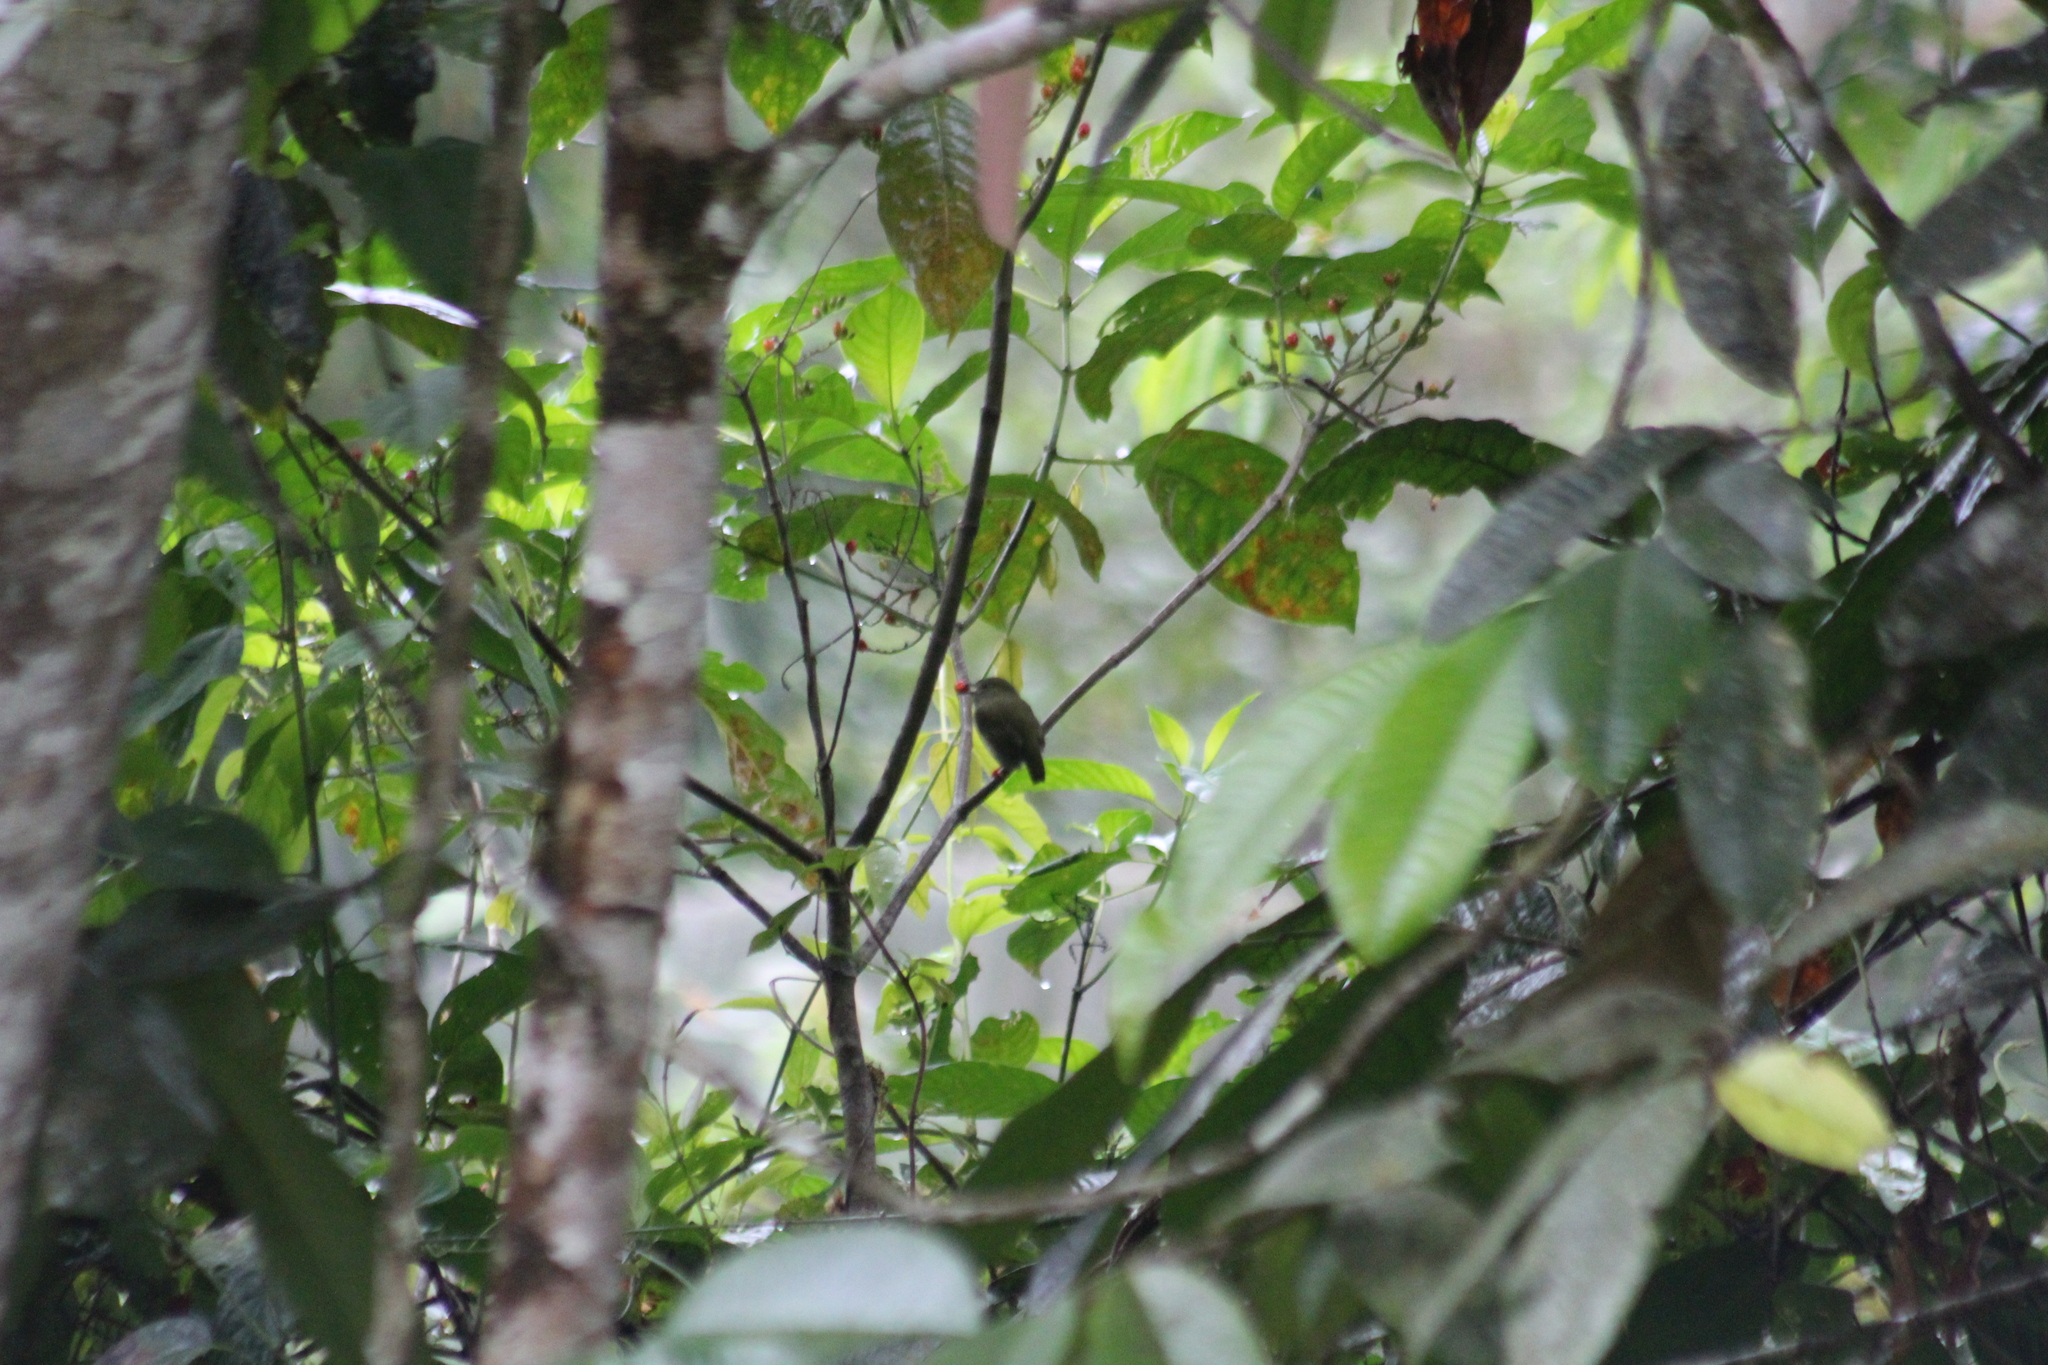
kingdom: Animalia
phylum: Chordata
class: Aves
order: Passeriformes
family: Pipridae
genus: Manacus
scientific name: Manacus manacus
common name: White-bearded manakin
